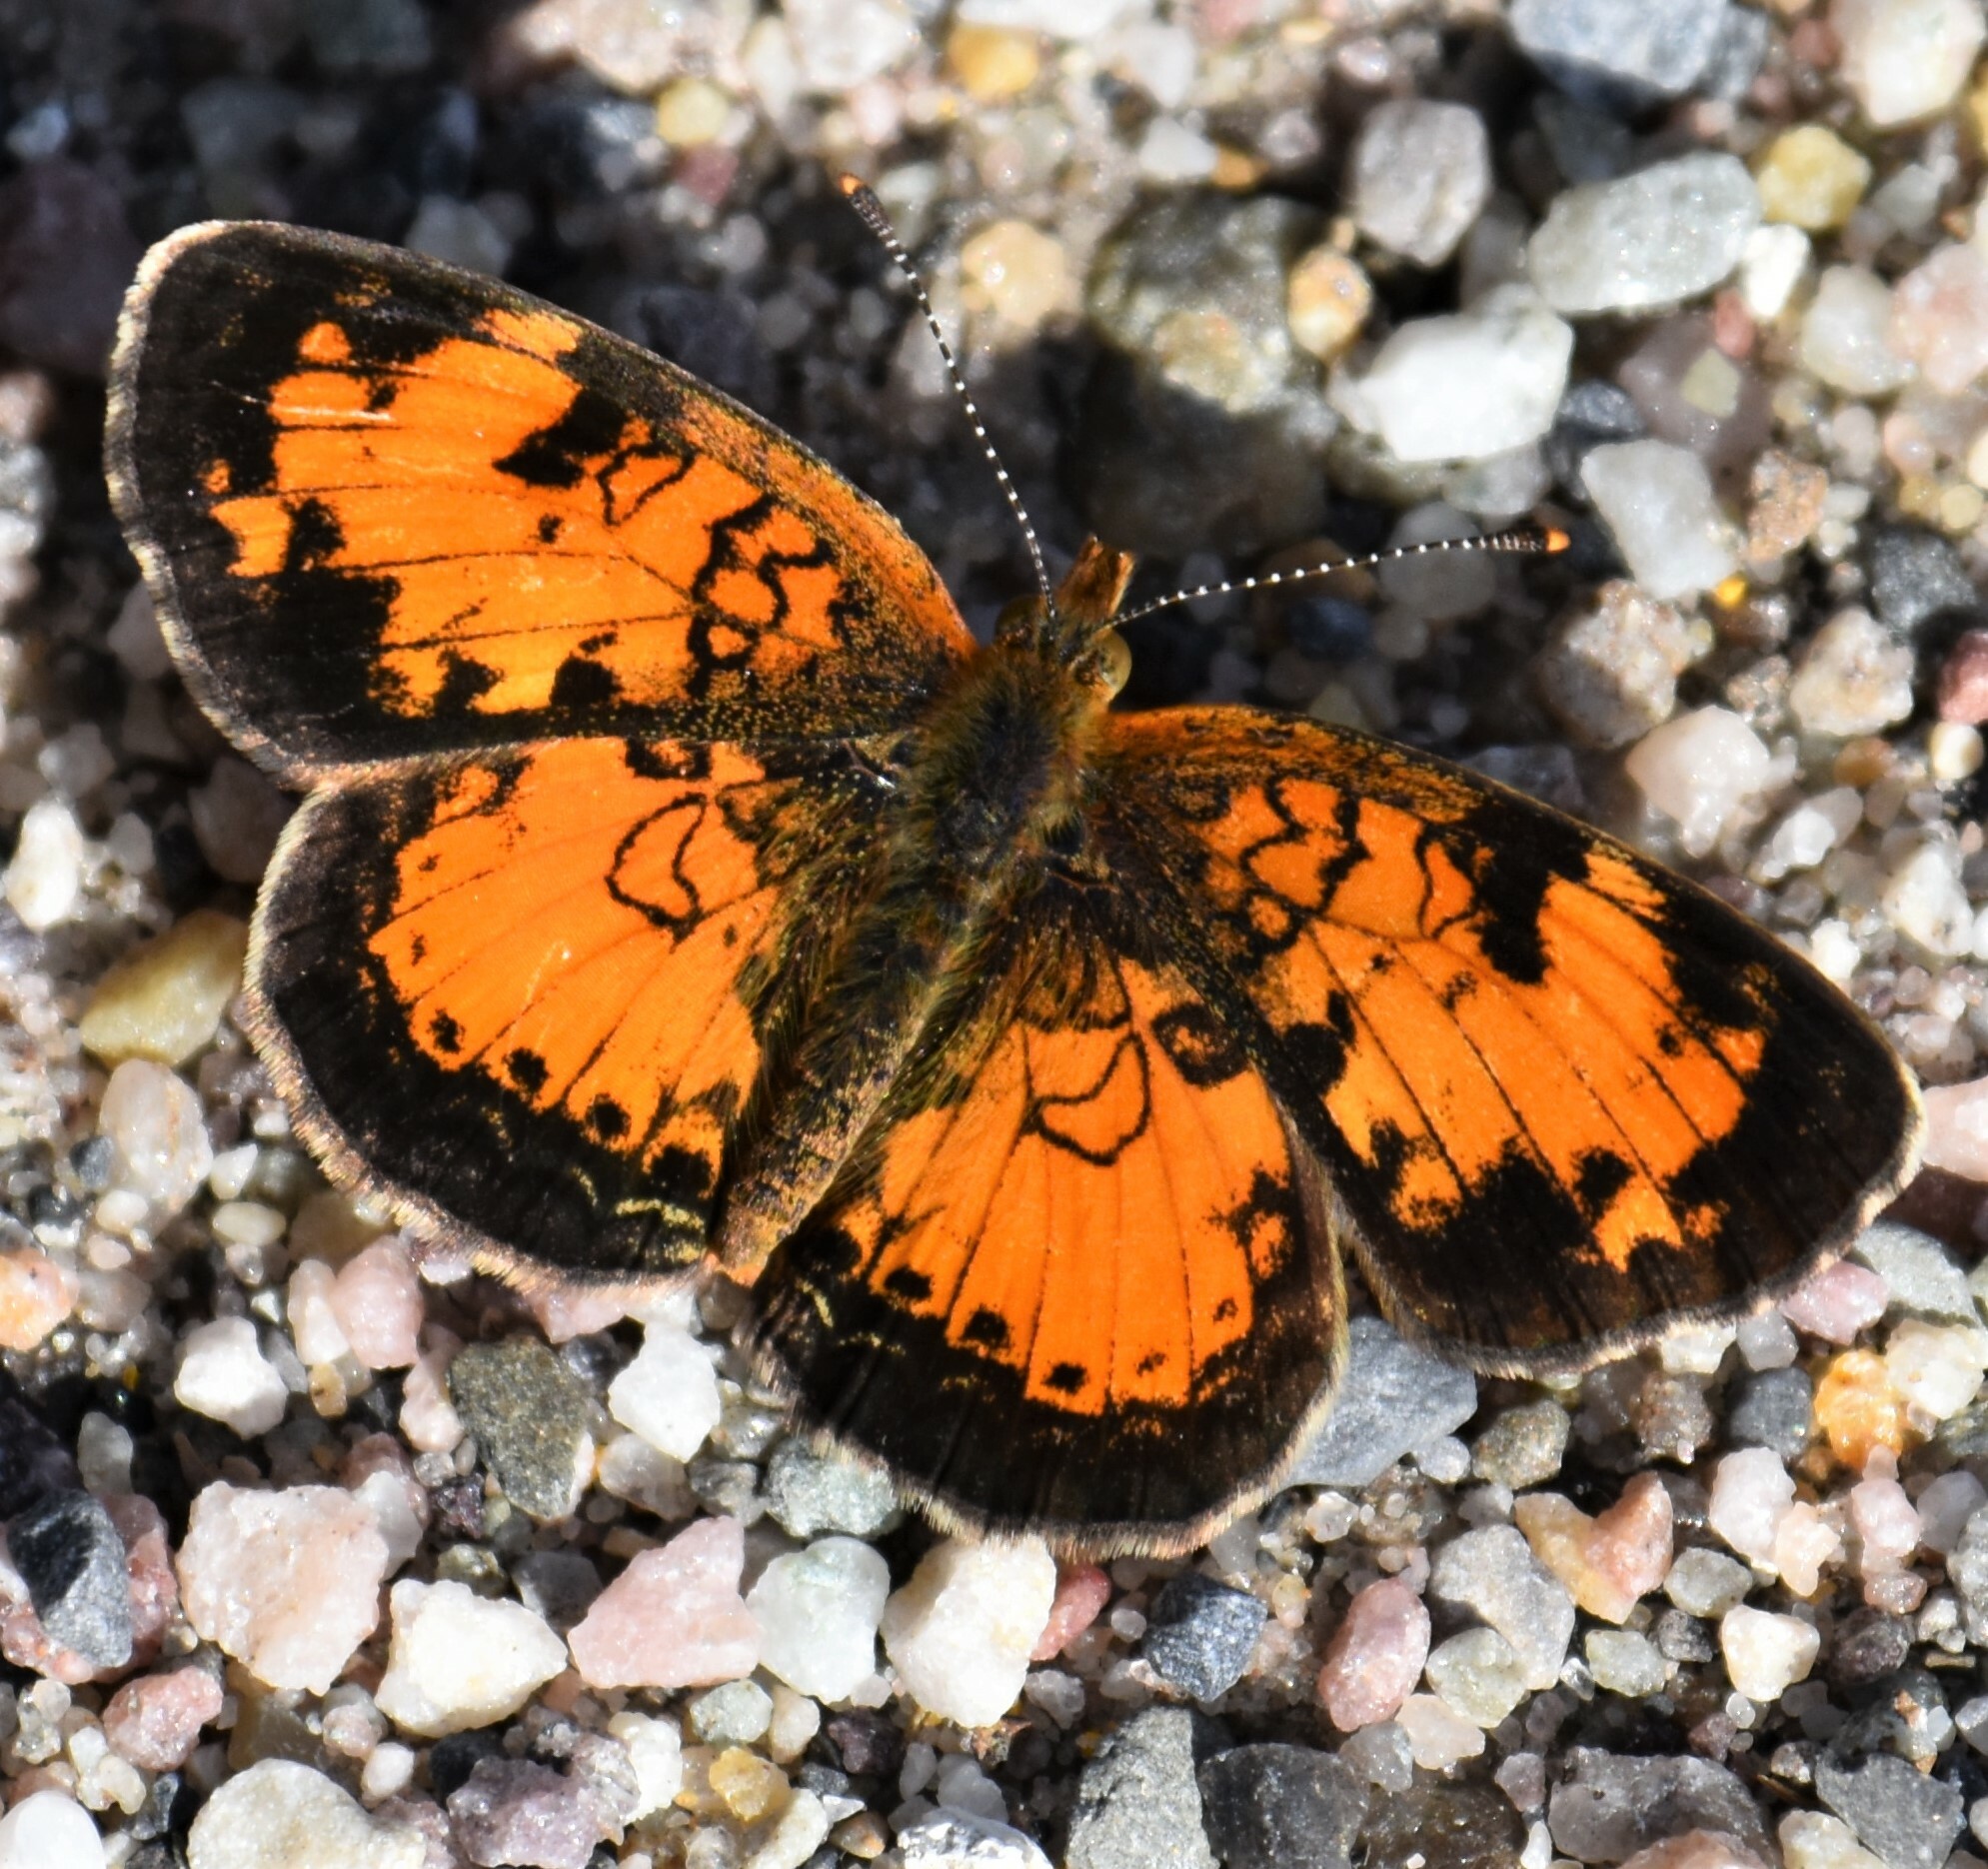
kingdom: Animalia
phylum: Arthropoda
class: Insecta
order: Lepidoptera
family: Nymphalidae
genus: Phyciodes
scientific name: Phyciodes tharos
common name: Pearl crescent
